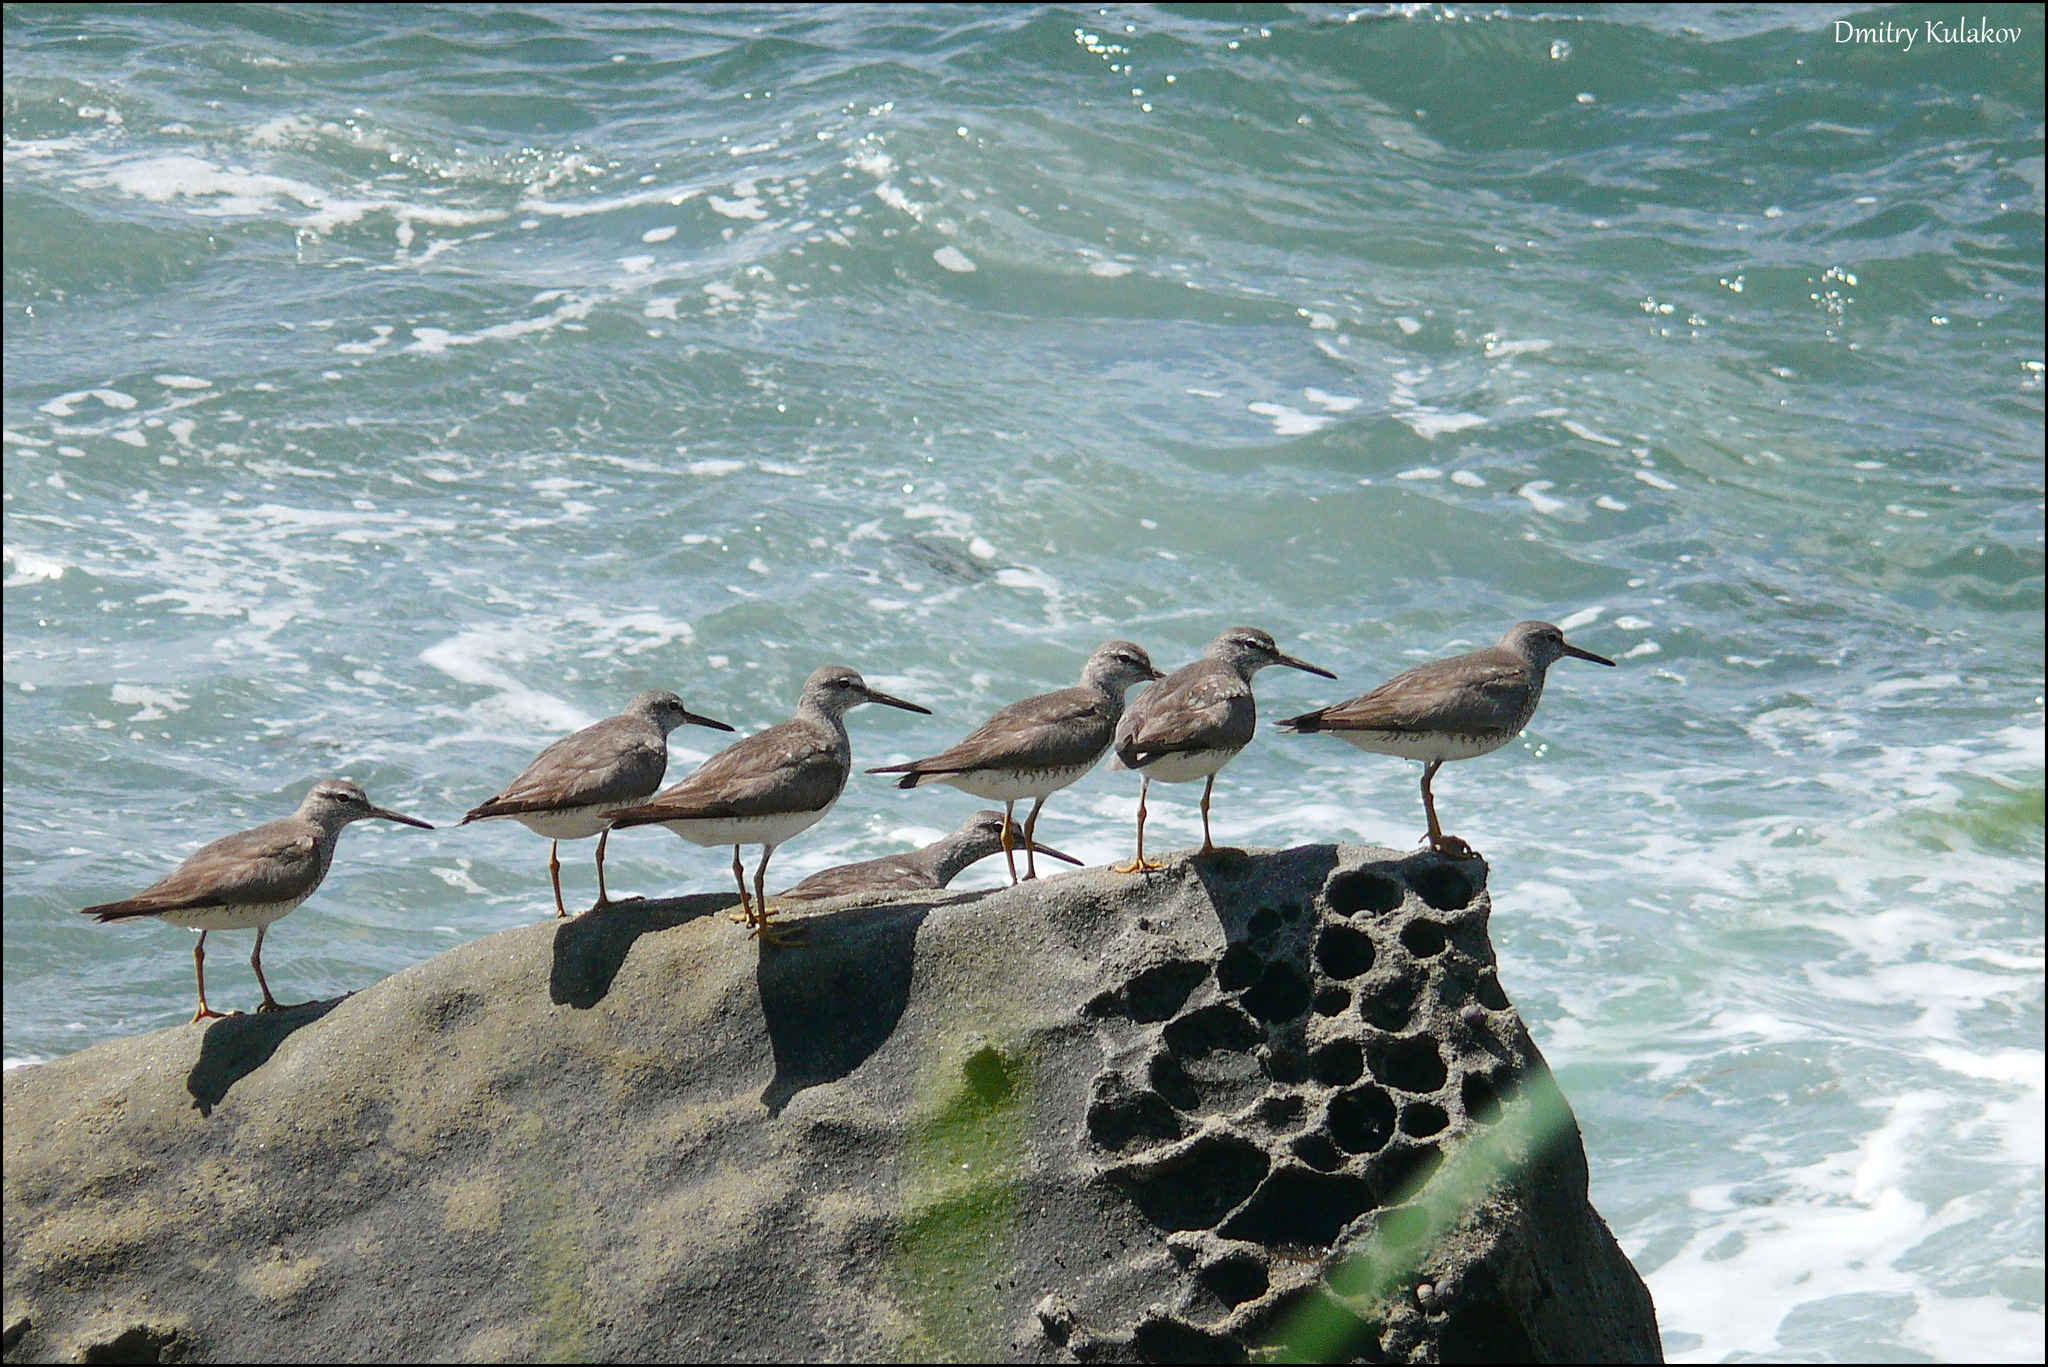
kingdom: Animalia
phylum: Chordata
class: Aves
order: Charadriiformes
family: Scolopacidae
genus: Tringa
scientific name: Tringa brevipes
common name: Grey-tailed tattler
